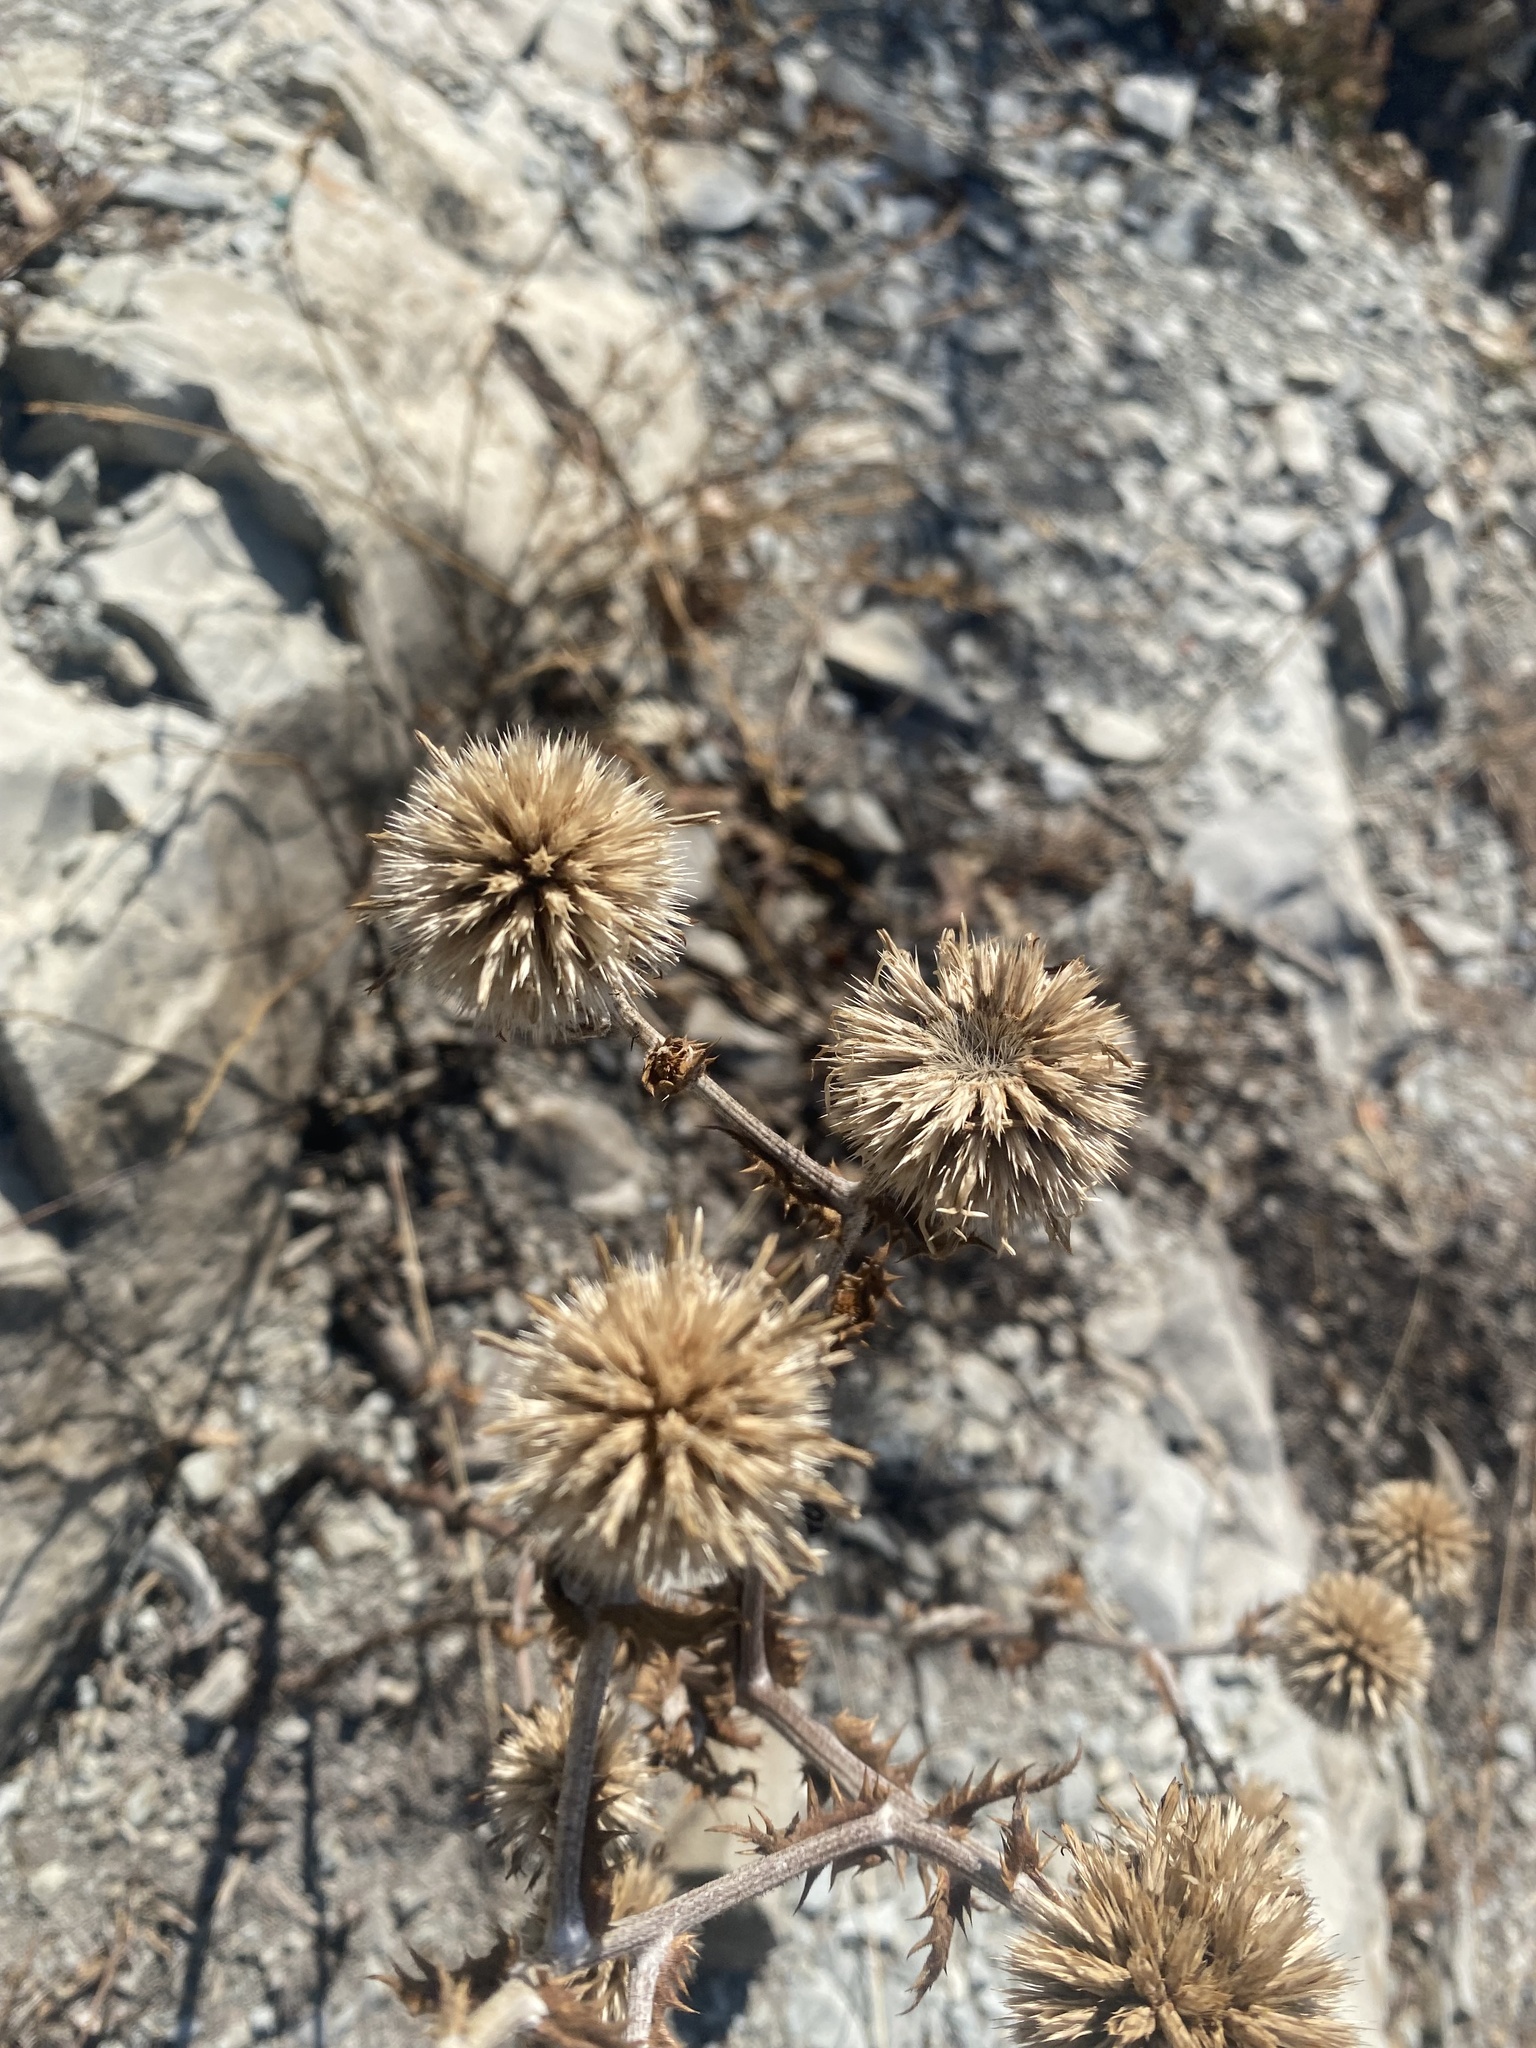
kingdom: Plantae
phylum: Tracheophyta
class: Magnoliopsida
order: Asterales
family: Asteraceae
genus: Echinops
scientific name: Echinops sphaerocephalus
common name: Glandular globe-thistle
